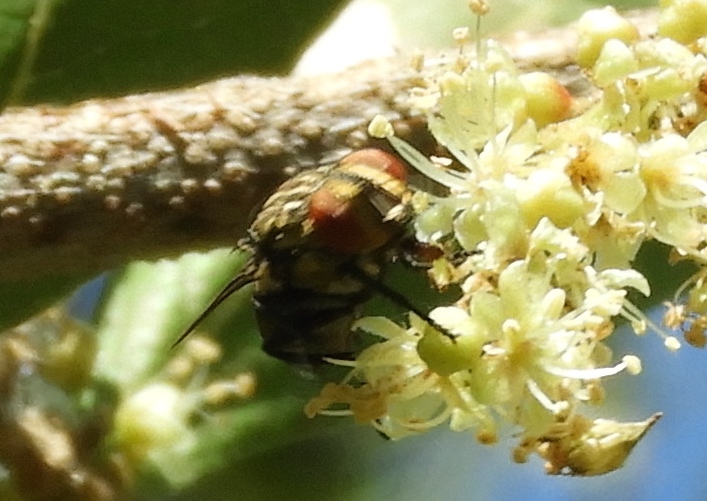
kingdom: Animalia
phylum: Arthropoda
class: Insecta
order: Diptera
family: Sarcophagidae
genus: Sarcophaga
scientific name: Sarcophaga
